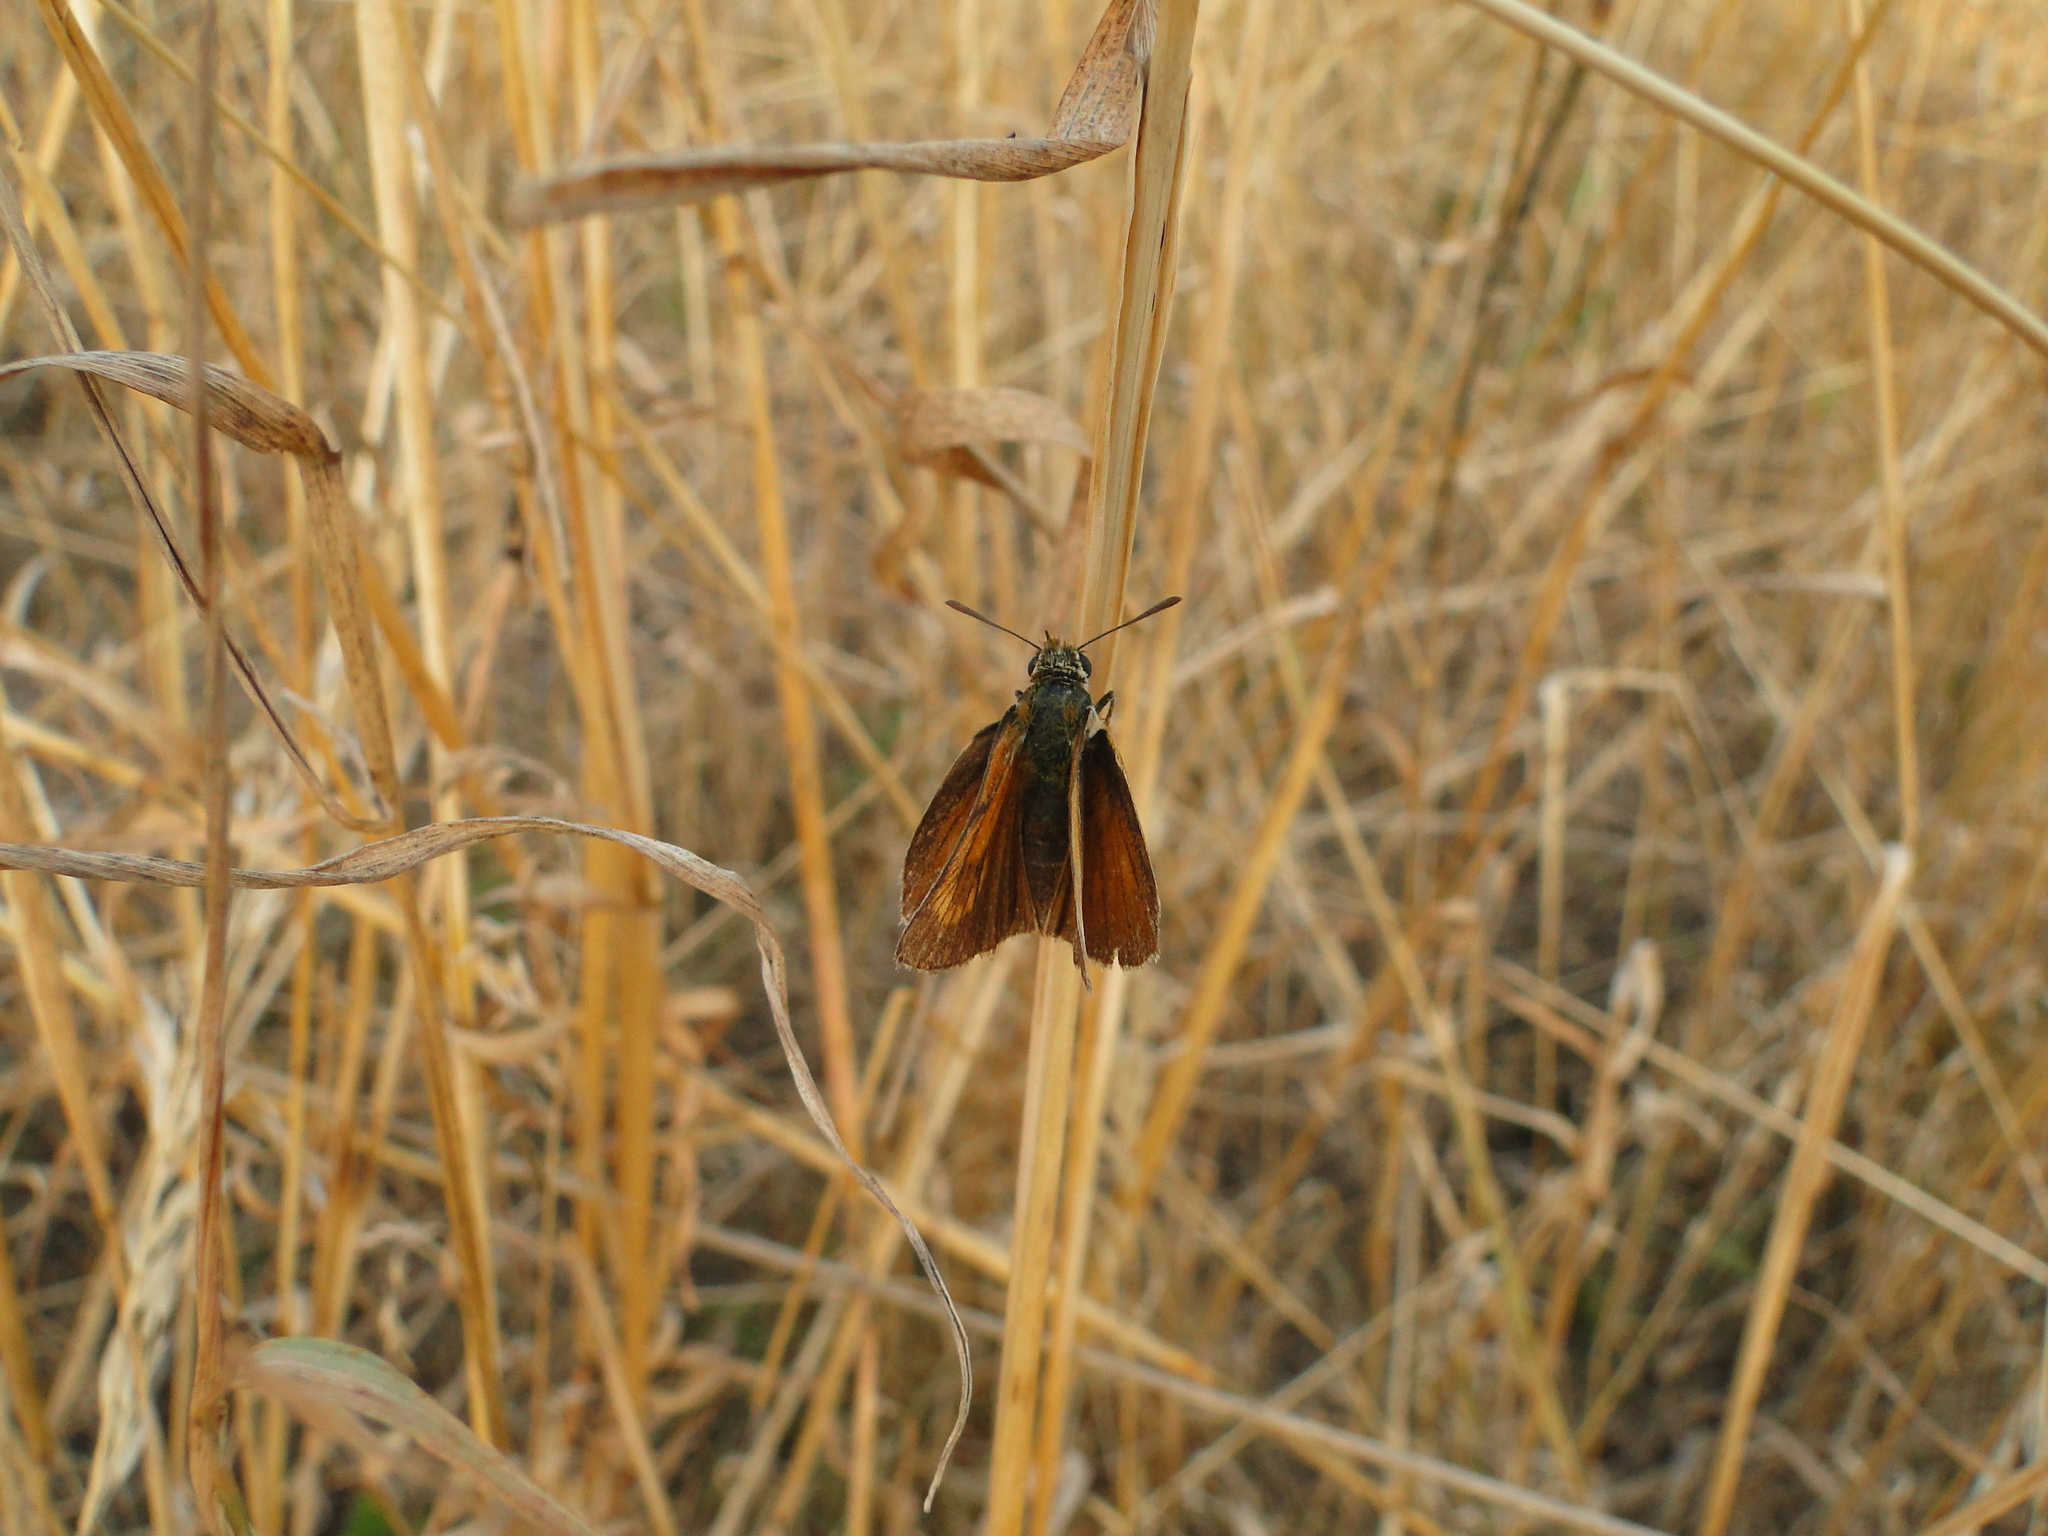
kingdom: Animalia
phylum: Arthropoda
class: Insecta
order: Lepidoptera
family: Hesperiidae
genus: Thymelicus
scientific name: Thymelicus acteon
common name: Lulworth skipper
